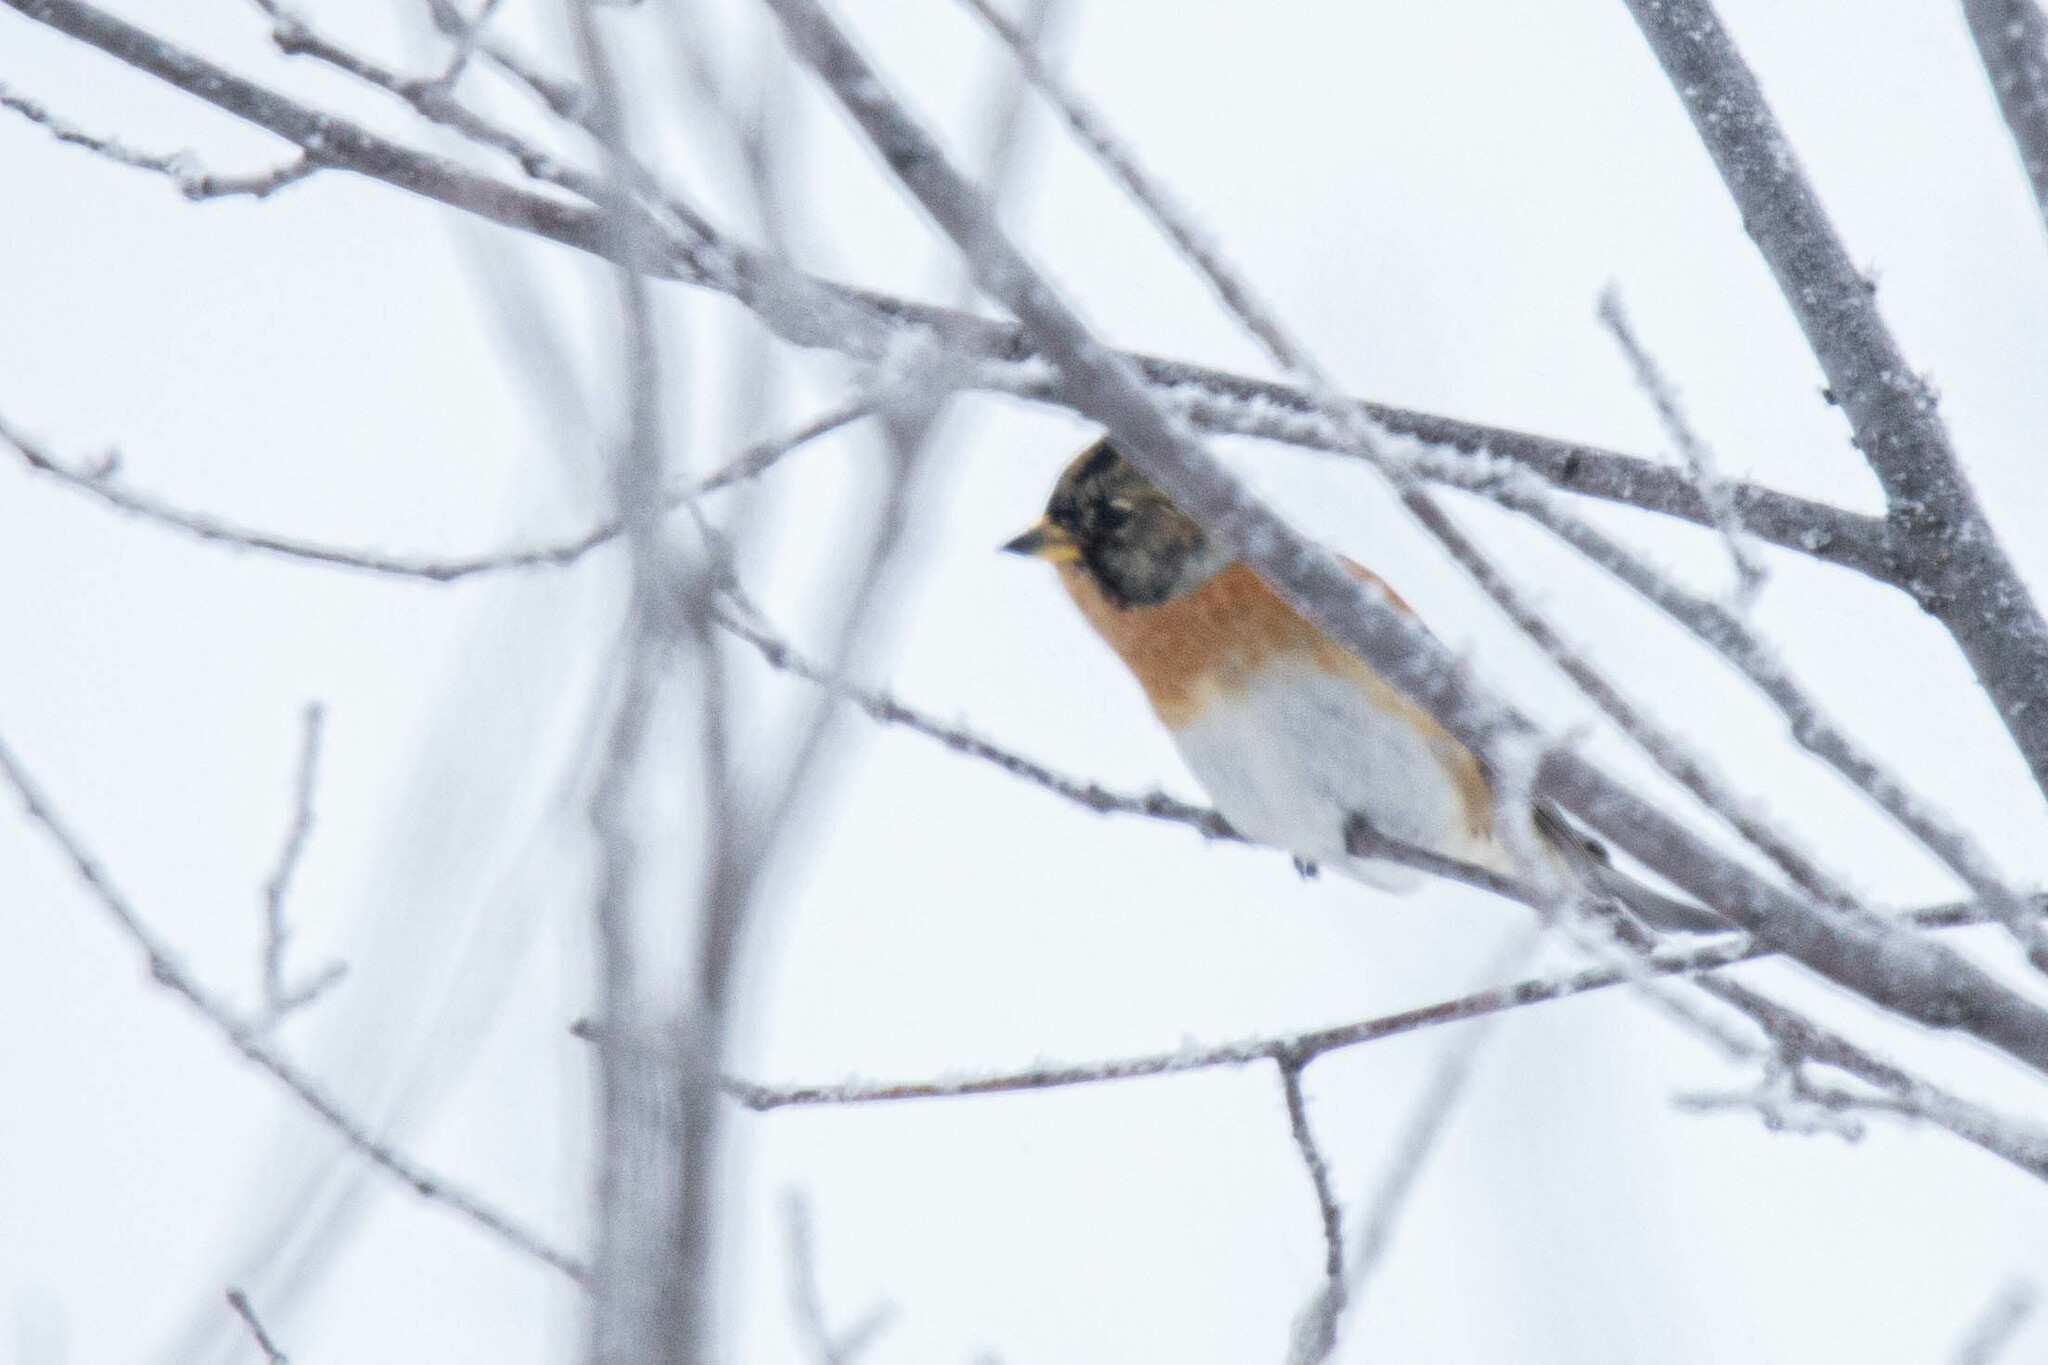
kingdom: Animalia
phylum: Chordata
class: Aves
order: Passeriformes
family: Fringillidae
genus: Fringilla
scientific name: Fringilla montifringilla
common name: Brambling
